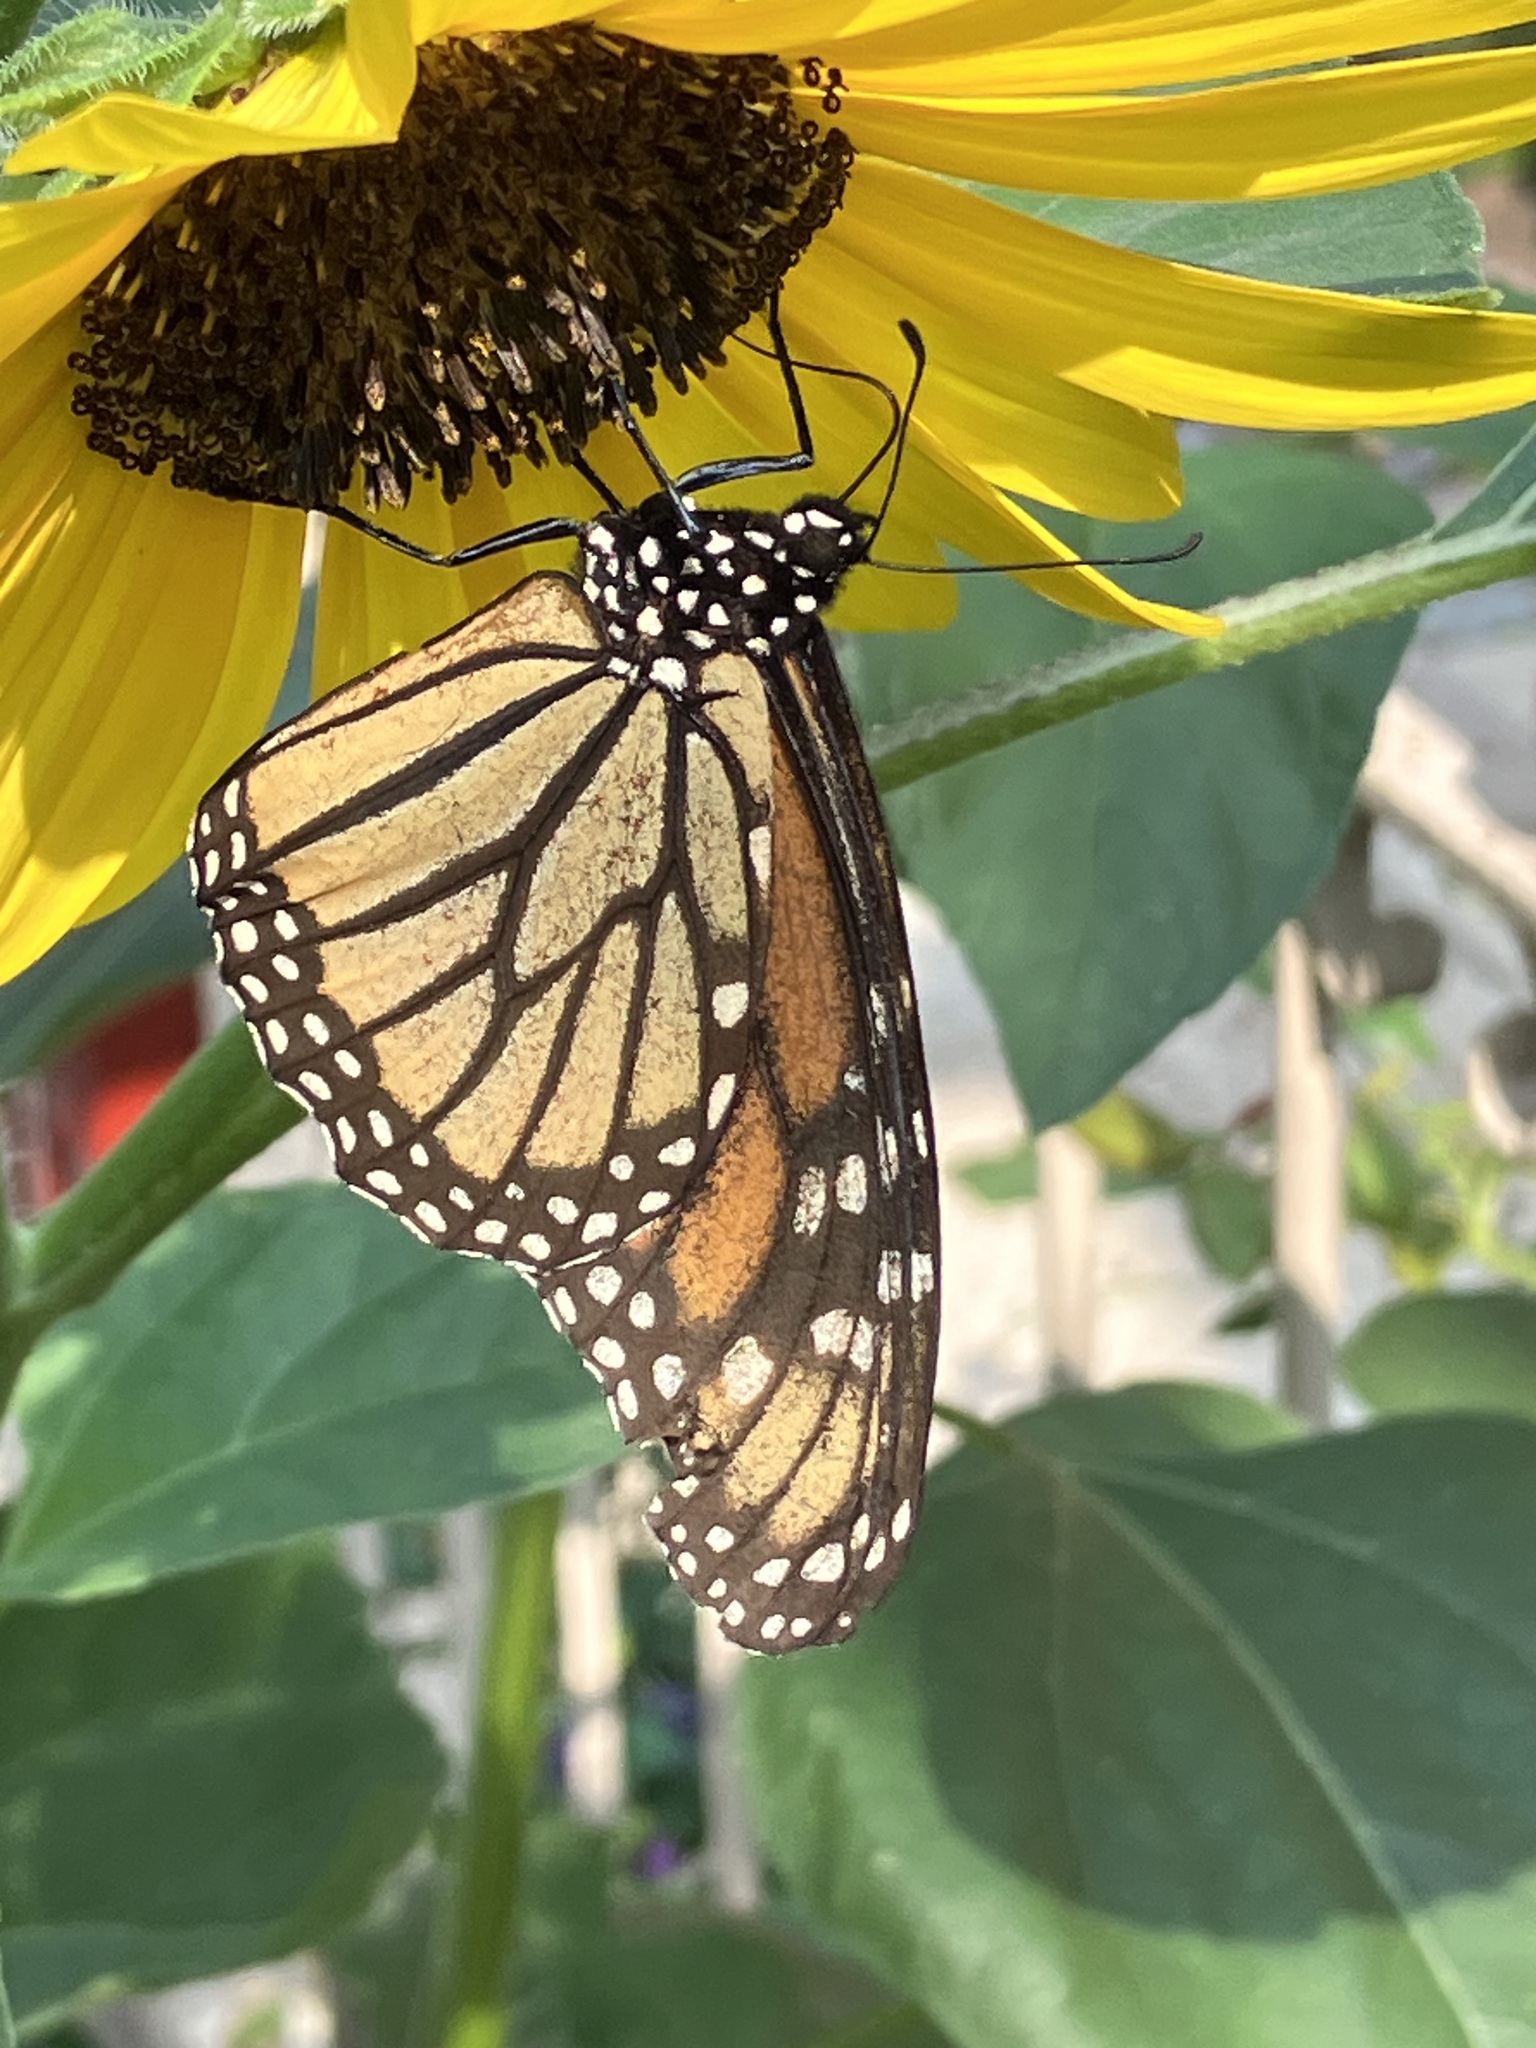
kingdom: Animalia
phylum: Arthropoda
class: Insecta
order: Lepidoptera
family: Nymphalidae
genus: Danaus
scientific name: Danaus plexippus
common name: Monarch
